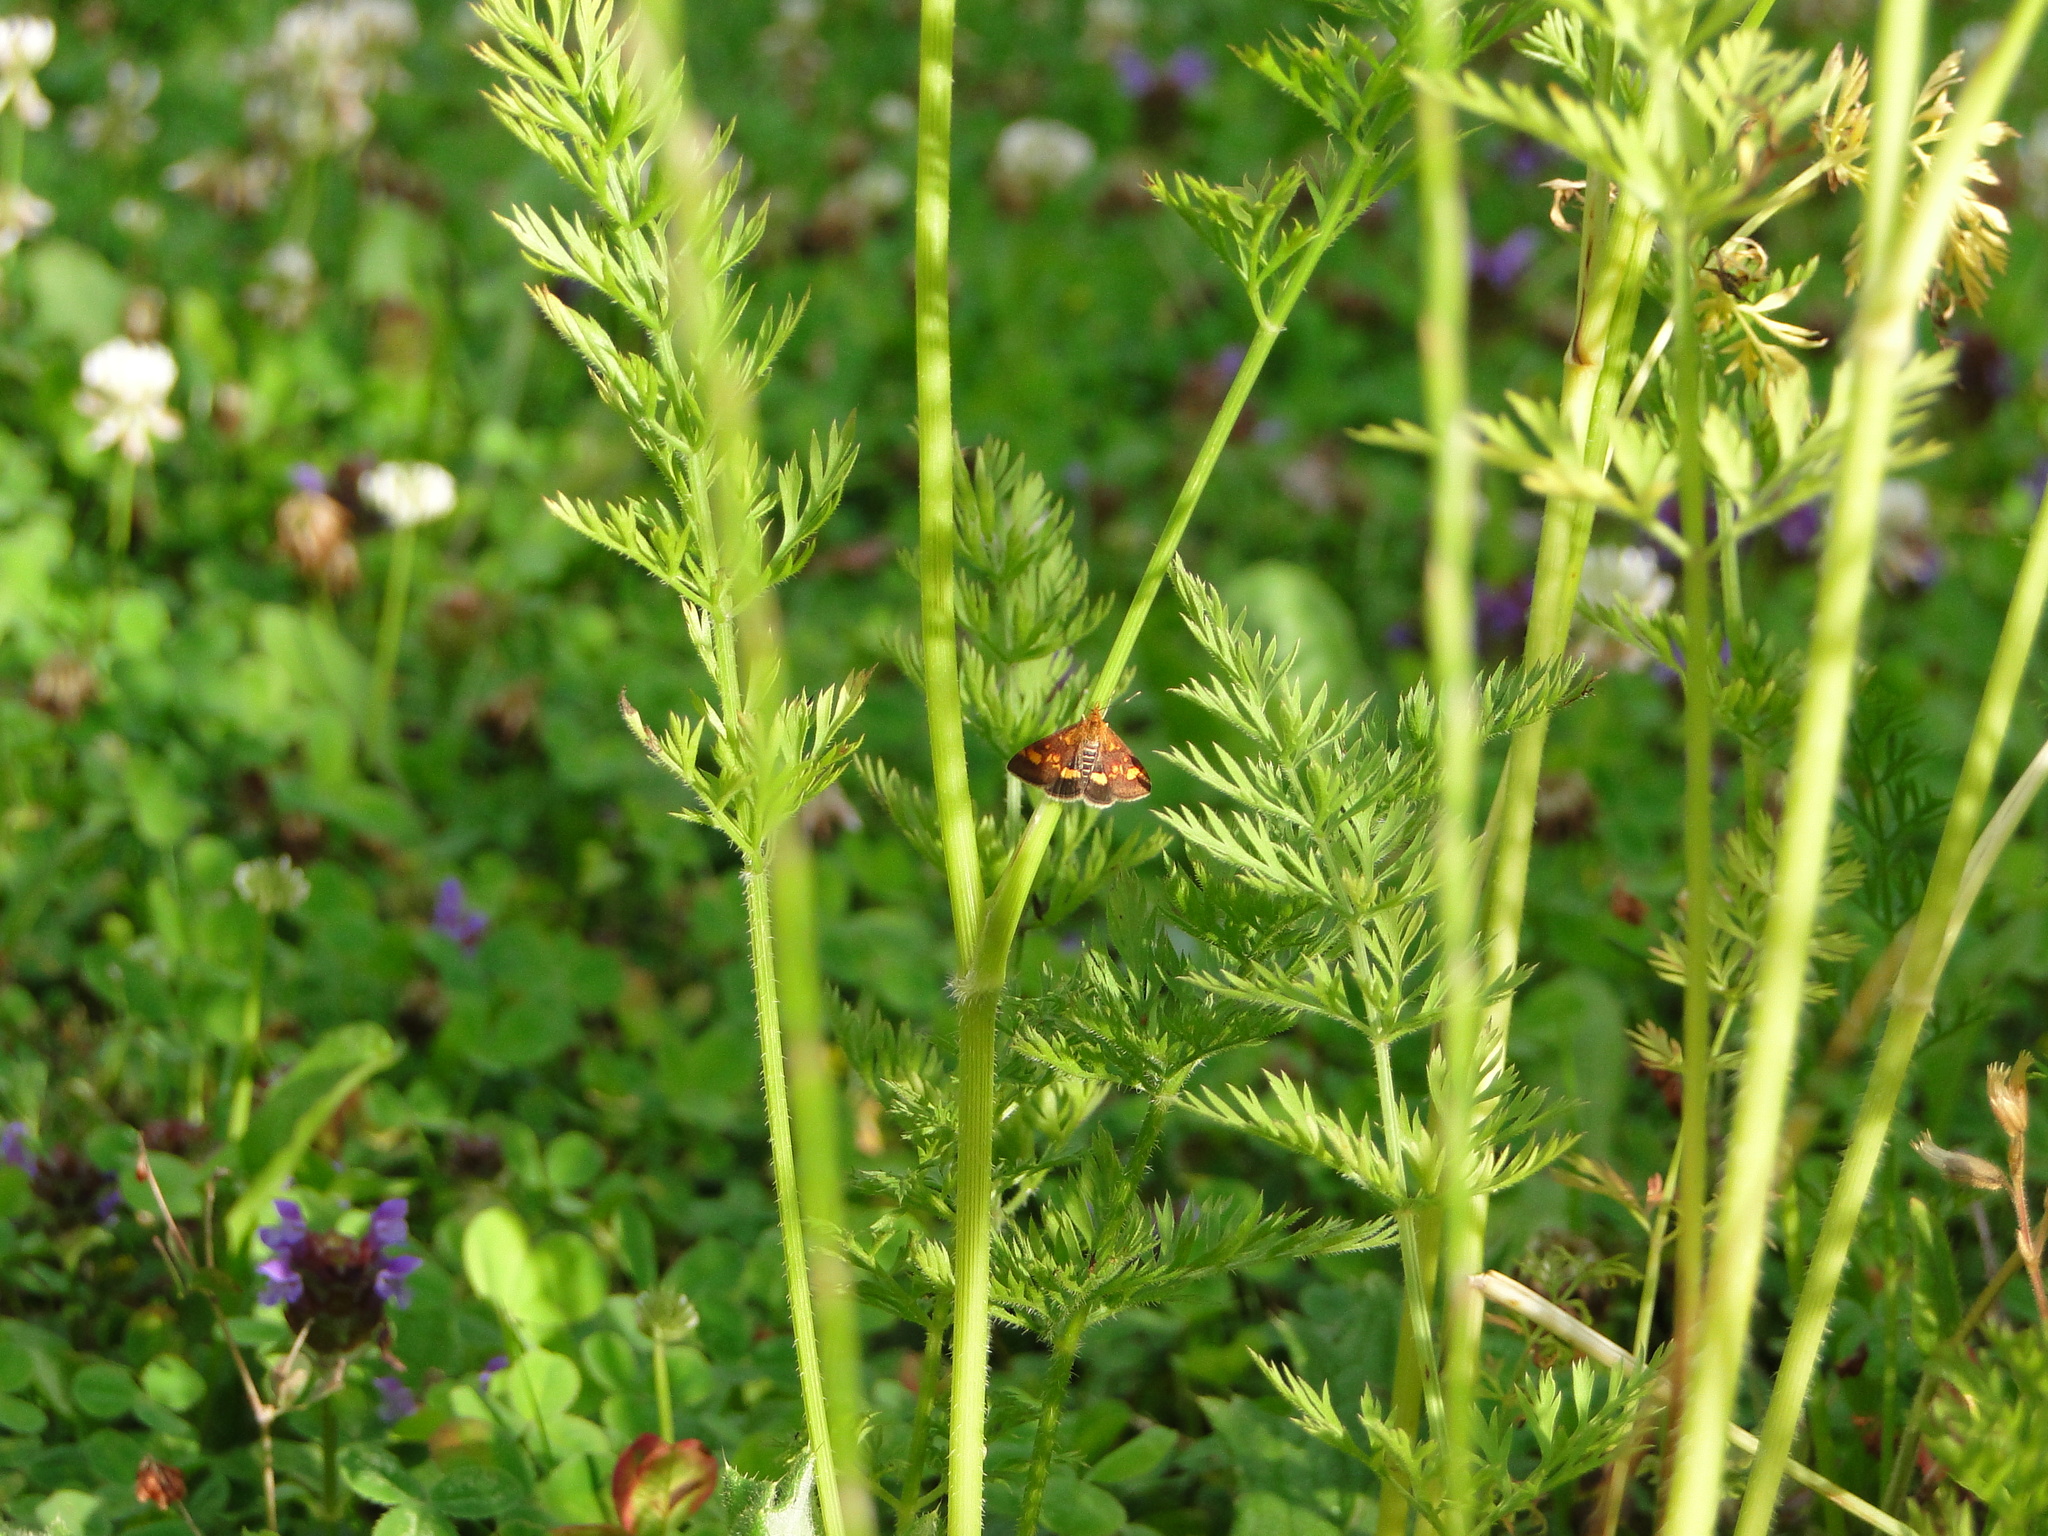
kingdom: Animalia
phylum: Arthropoda
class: Insecta
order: Lepidoptera
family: Crambidae
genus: Pyrausta
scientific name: Pyrausta aurata
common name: Small purple & gold
